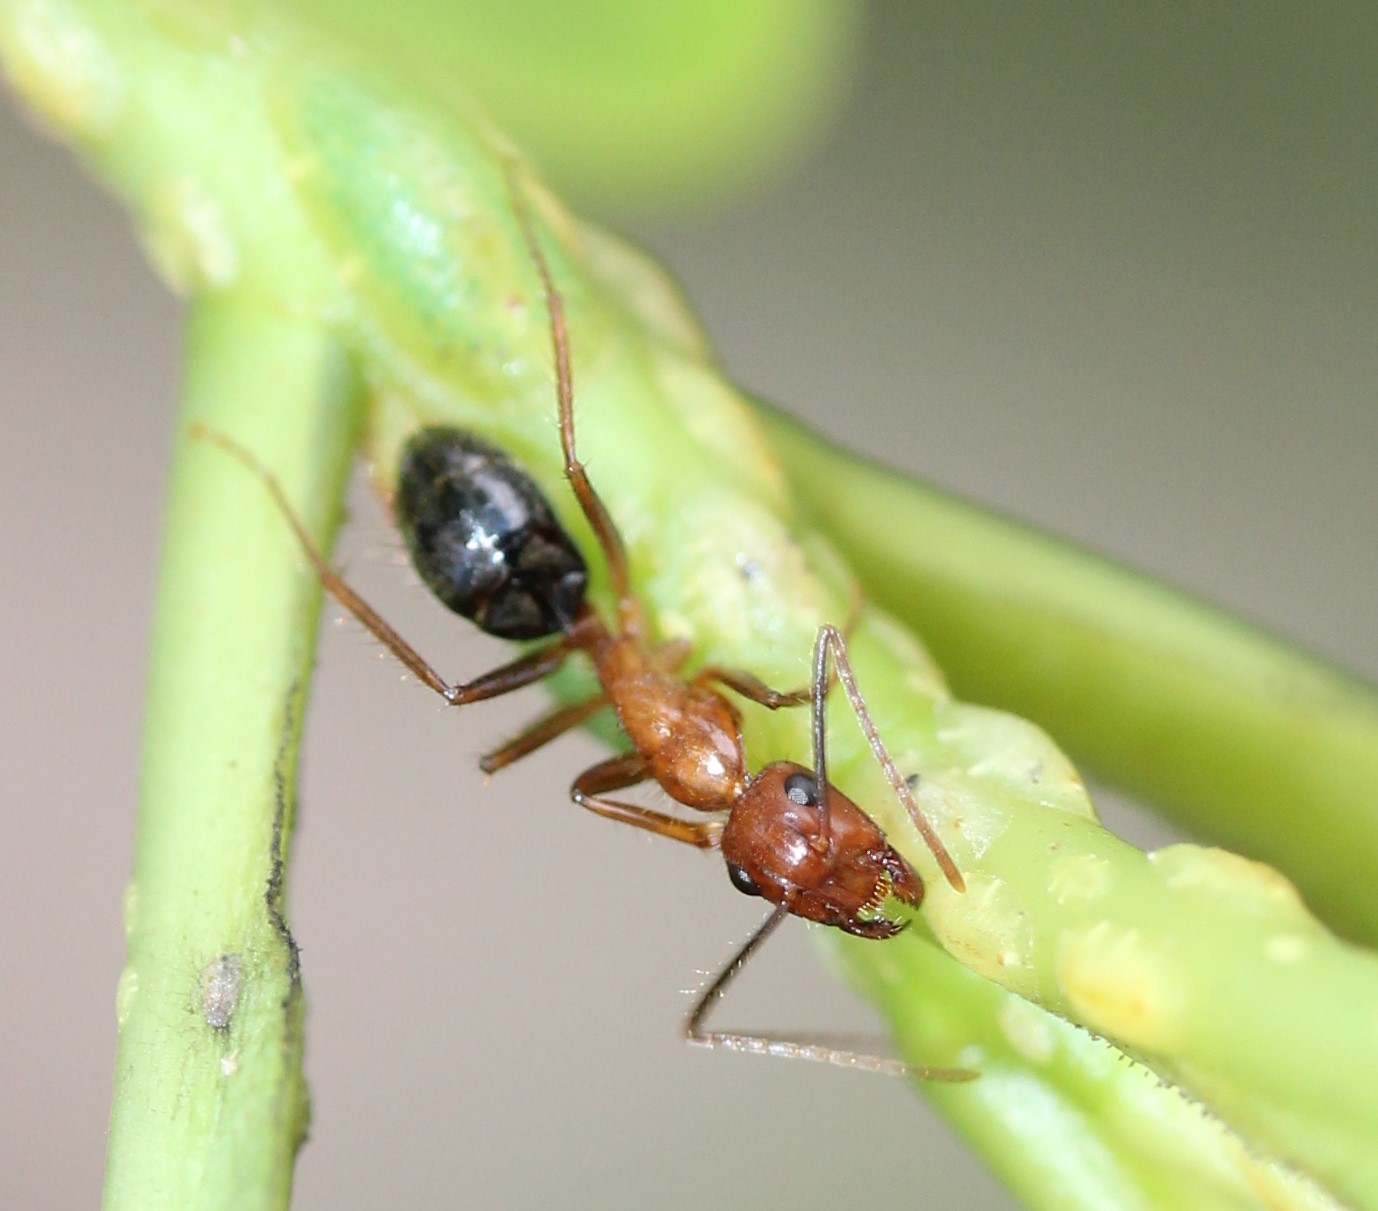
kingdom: Animalia
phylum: Arthropoda
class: Insecta
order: Hymenoptera
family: Formicidae
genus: Camponotus
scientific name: Camponotus floridanus
